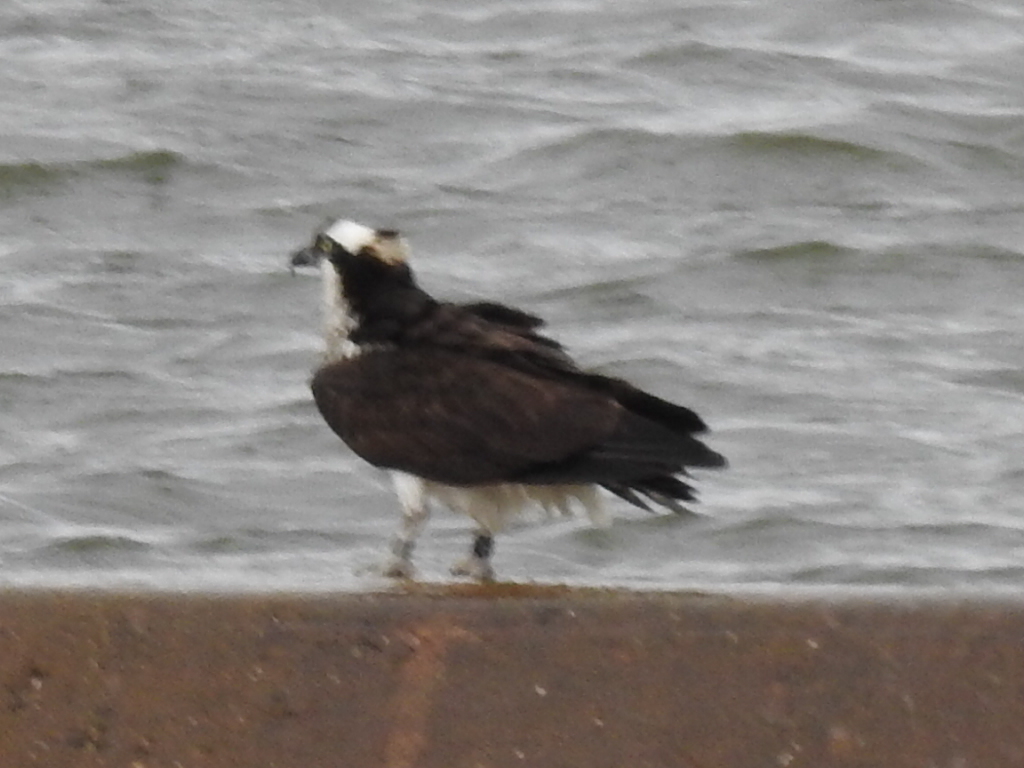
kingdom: Animalia
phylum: Chordata
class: Aves
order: Accipitriformes
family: Pandionidae
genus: Pandion
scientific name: Pandion haliaetus
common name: Osprey
